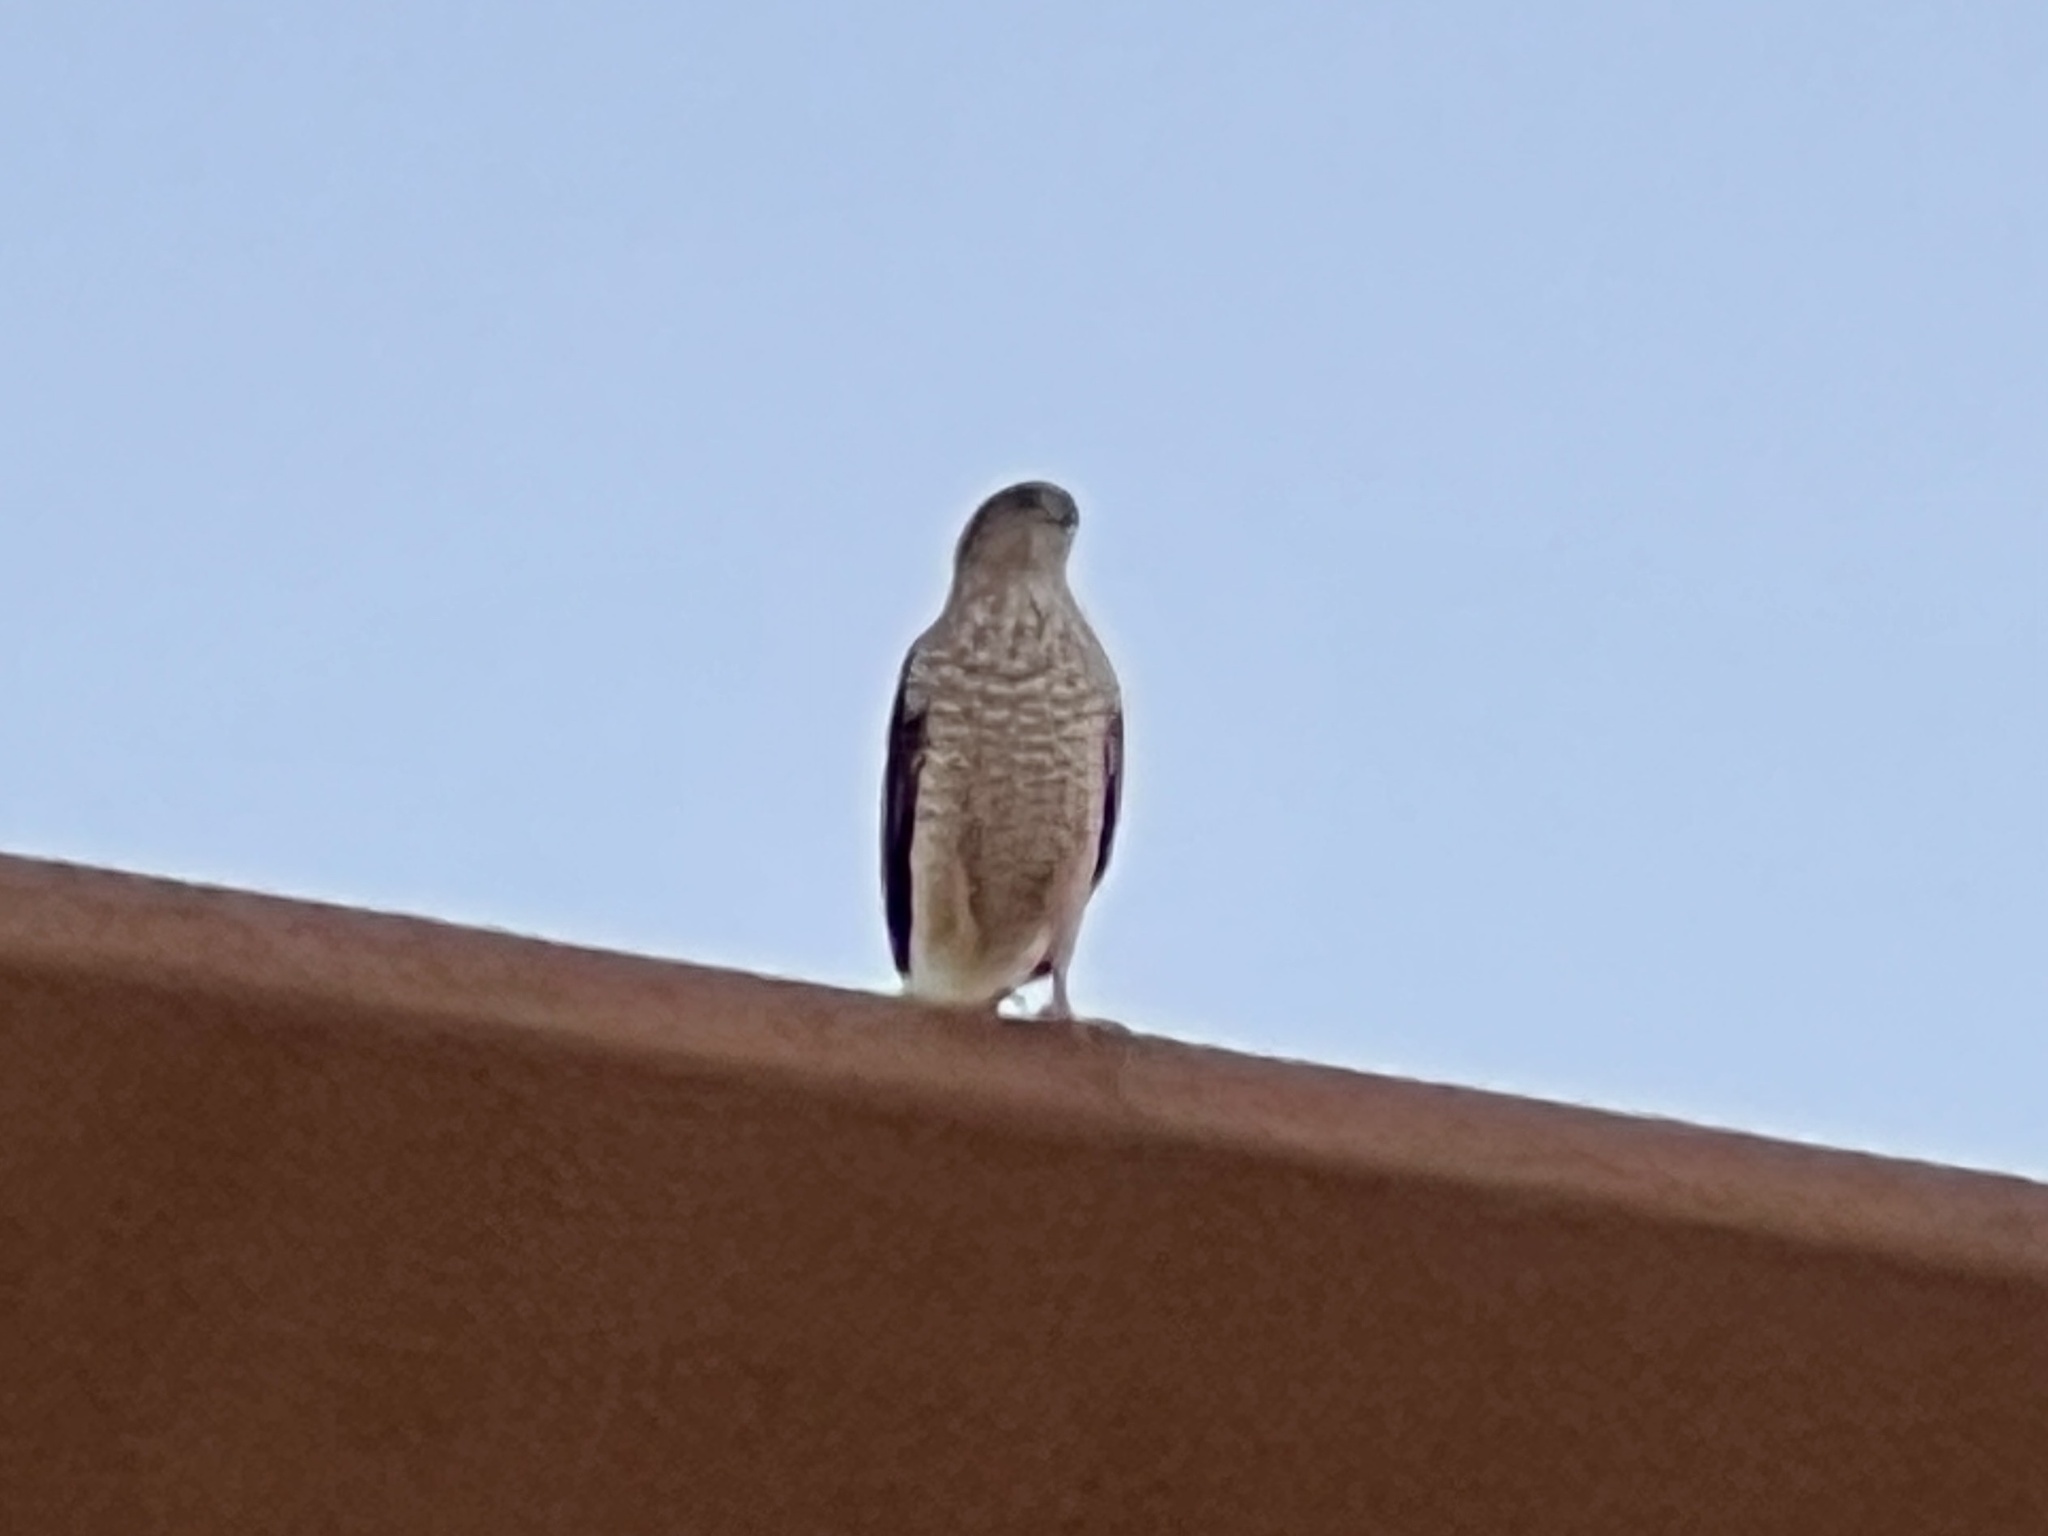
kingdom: Animalia
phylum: Chordata
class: Aves
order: Accipitriformes
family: Accipitridae
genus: Accipiter
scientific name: Accipiter cooperii
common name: Cooper's hawk
